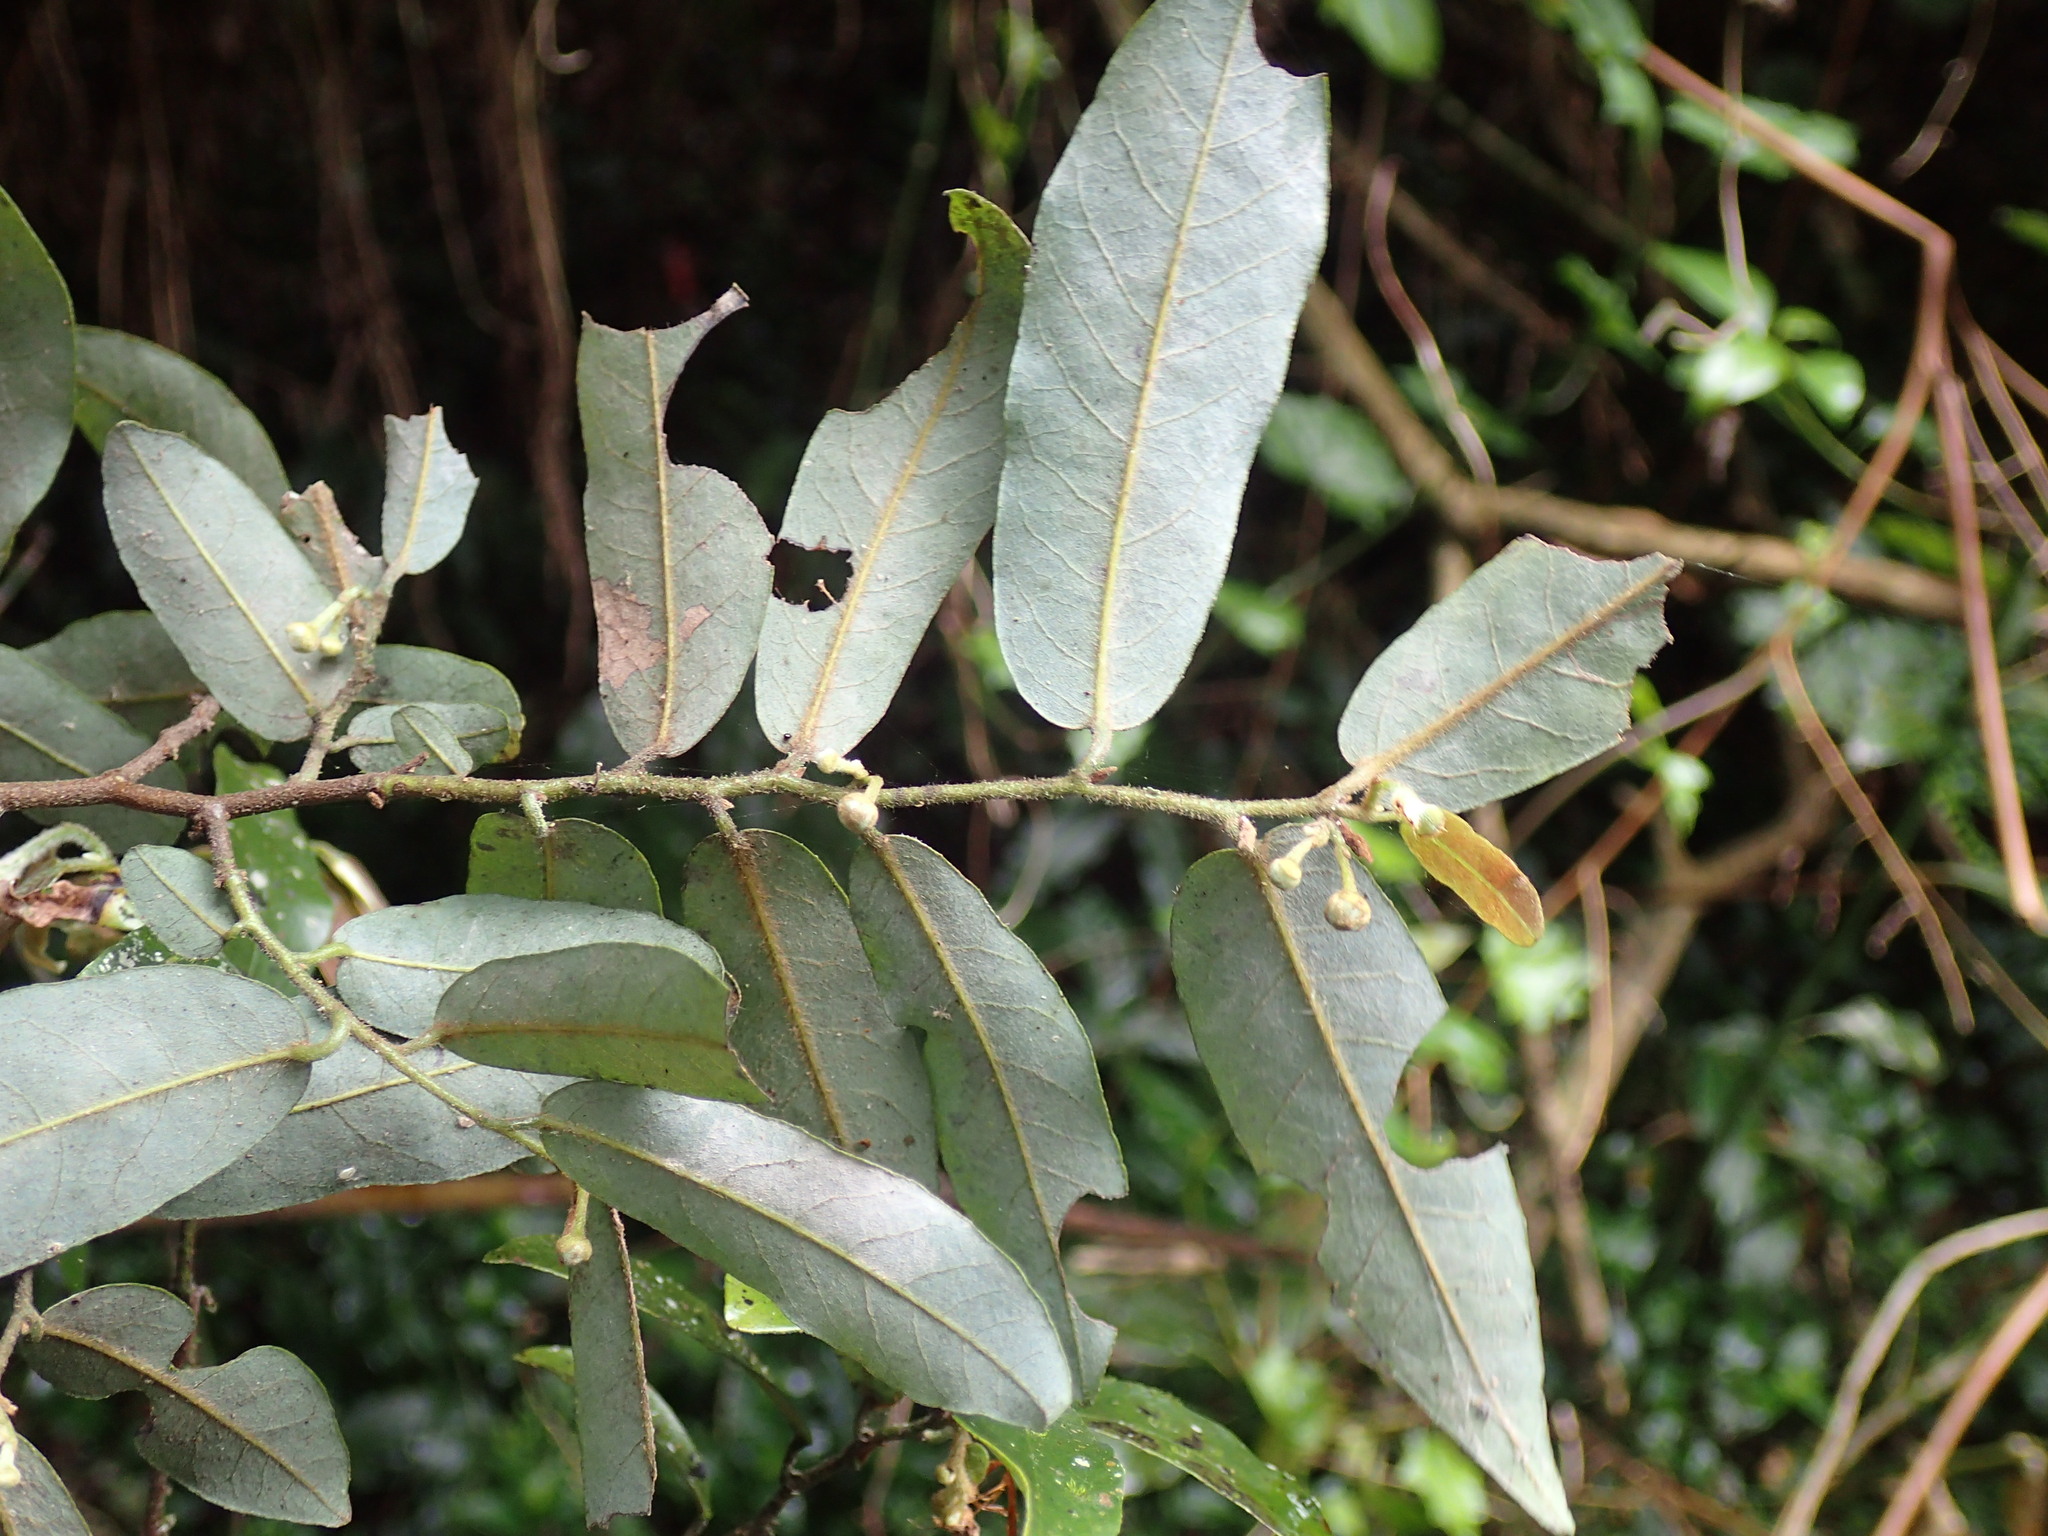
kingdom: Plantae
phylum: Tracheophyta
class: Magnoliopsida
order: Magnoliales
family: Annonaceae
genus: Monanthotaxis
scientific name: Monanthotaxis caffra
